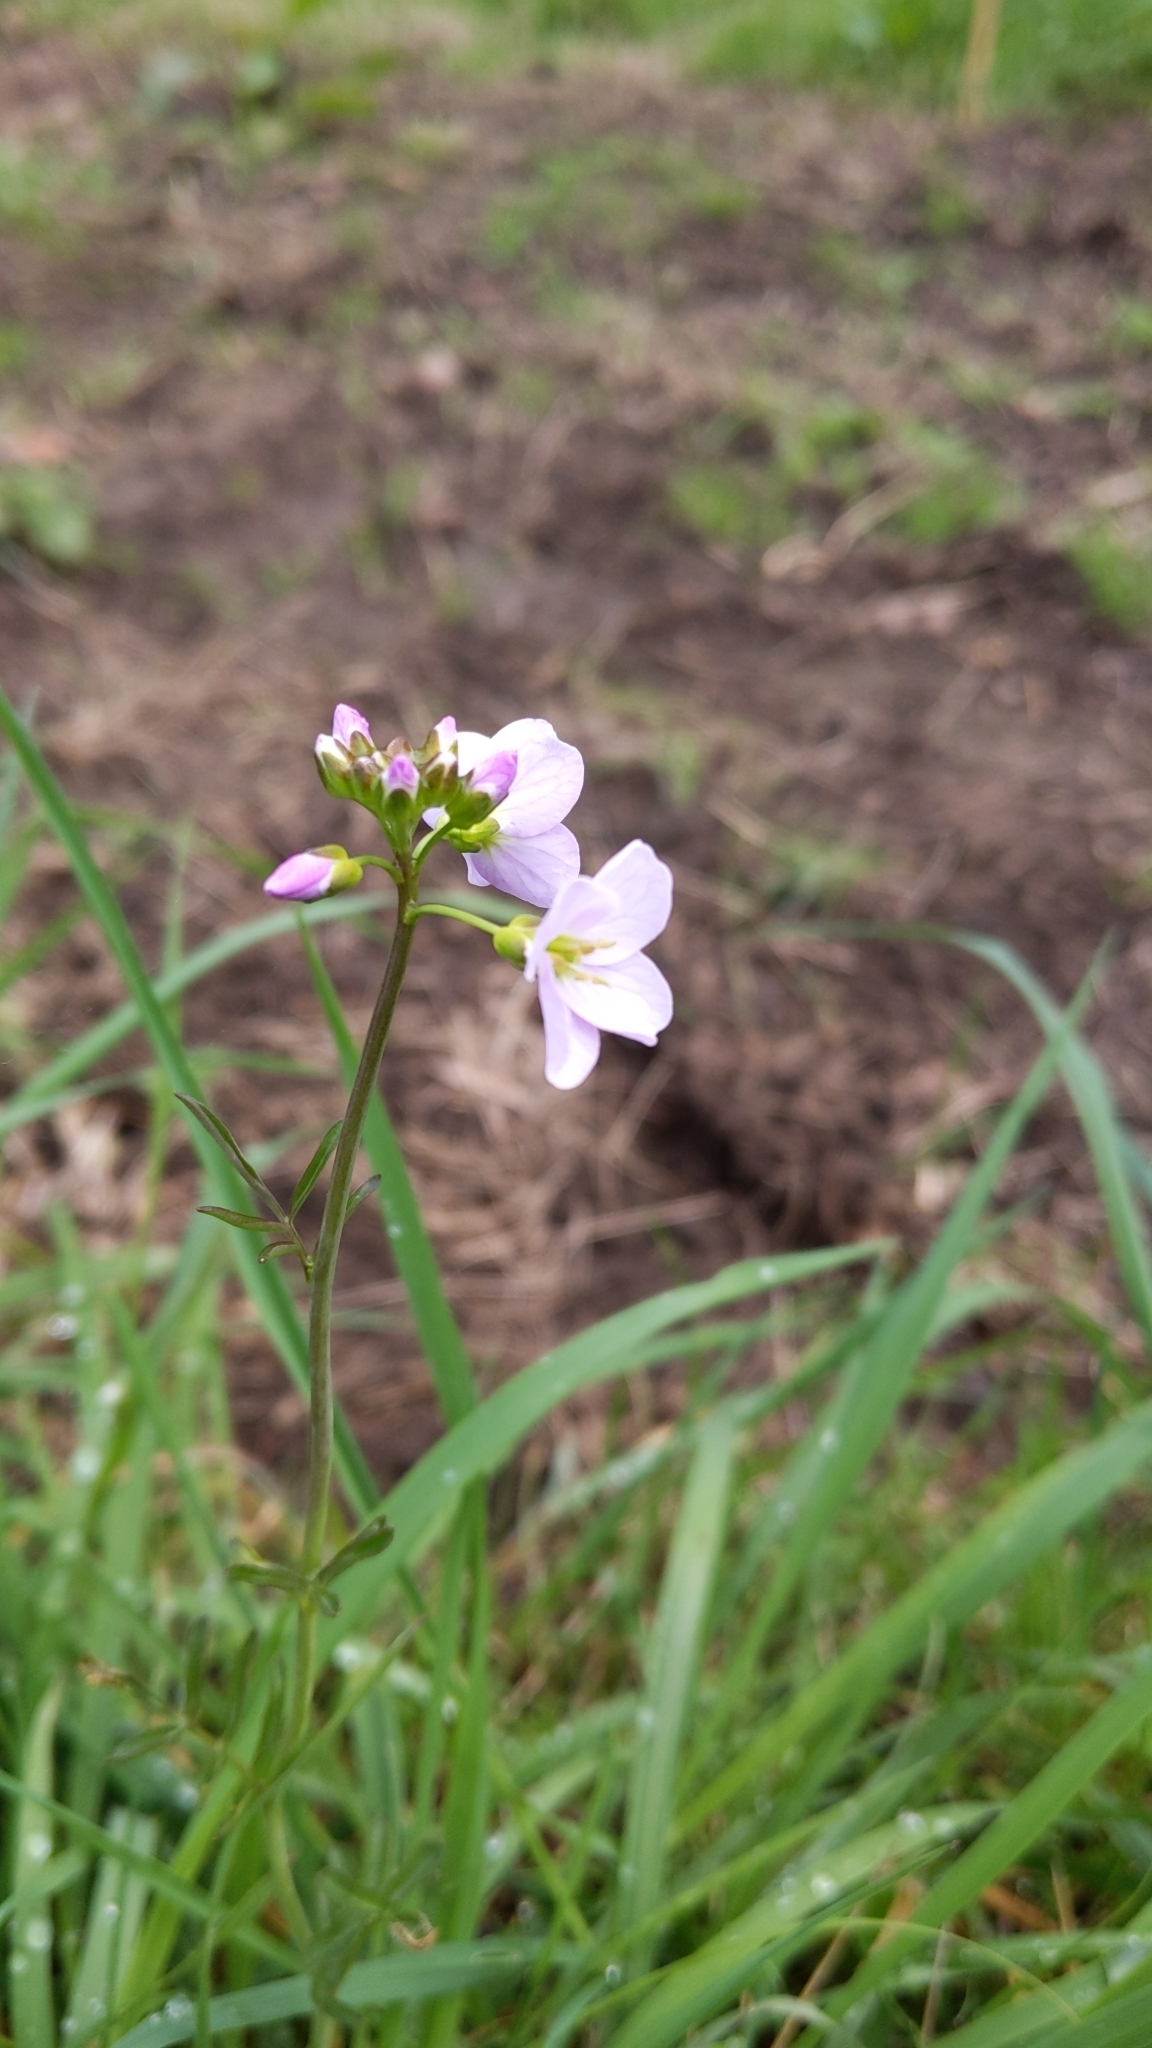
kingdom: Plantae
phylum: Tracheophyta
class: Magnoliopsida
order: Brassicales
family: Brassicaceae
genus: Cardamine
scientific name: Cardamine pratensis
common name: Cuckoo flower
